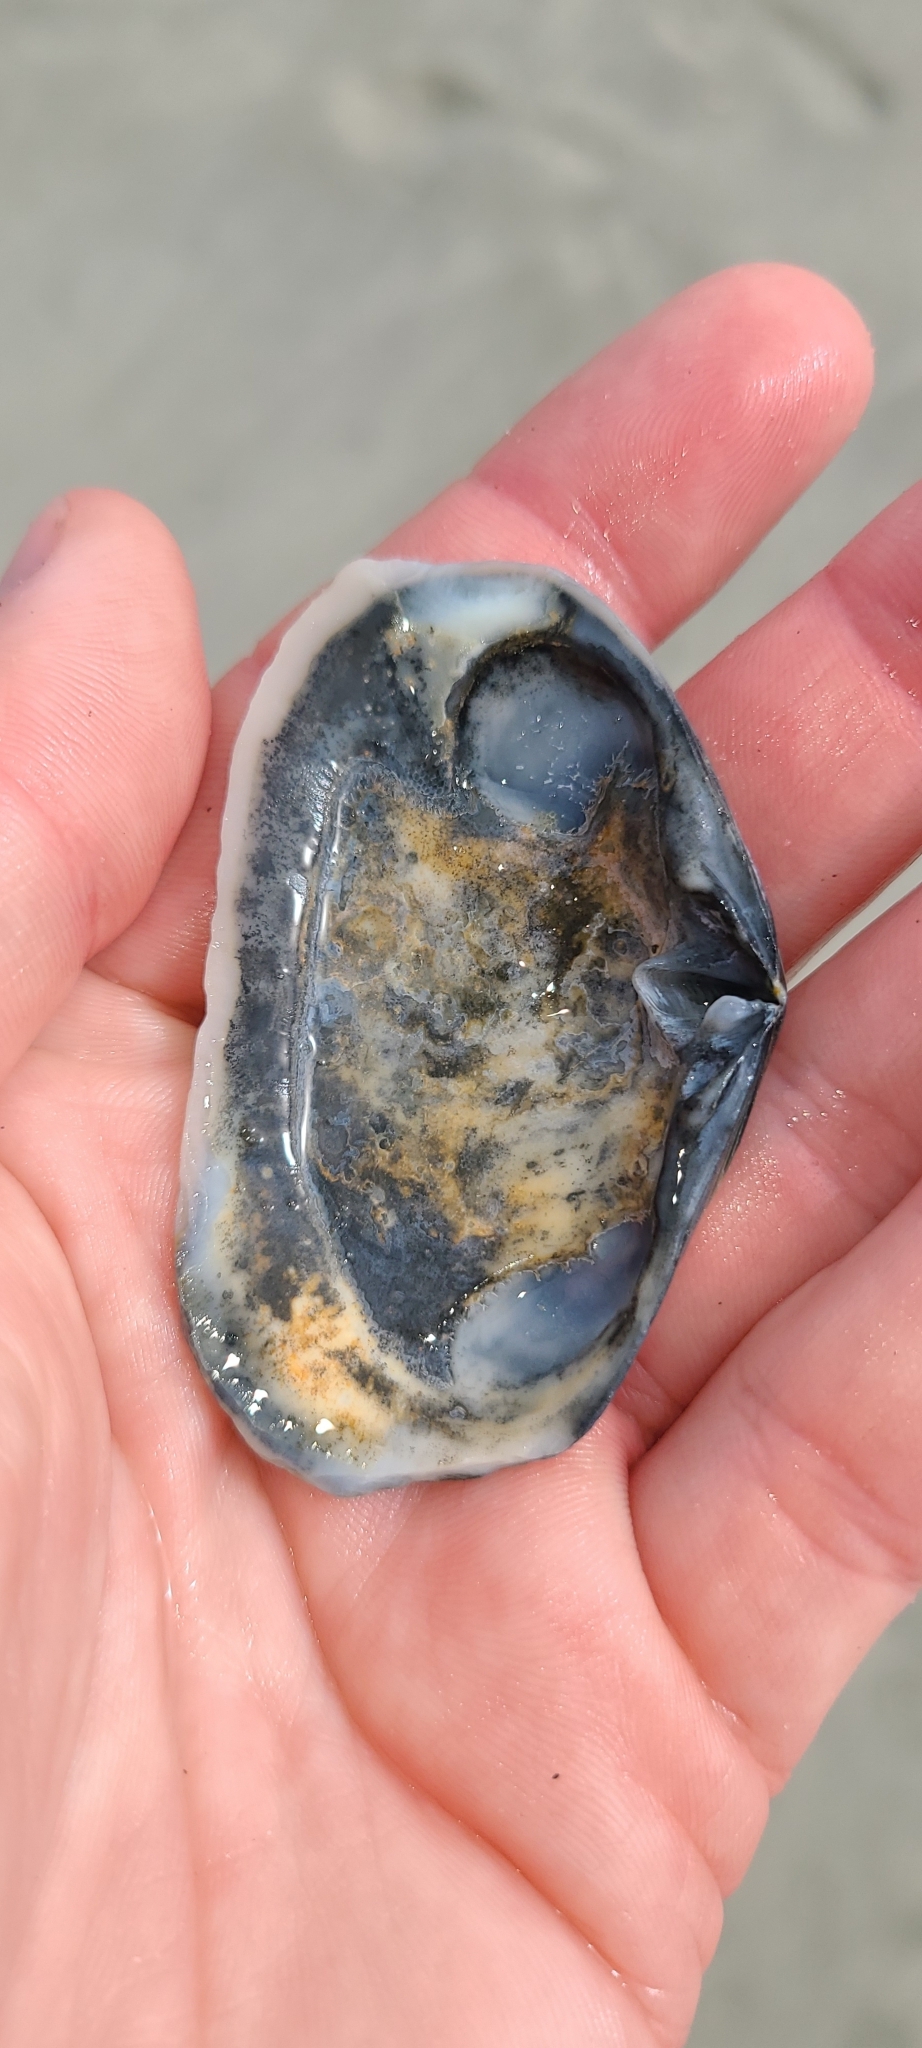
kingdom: Animalia
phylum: Mollusca
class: Bivalvia
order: Venerida
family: Mesodesmatidae
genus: Paphies
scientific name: Paphies australis
